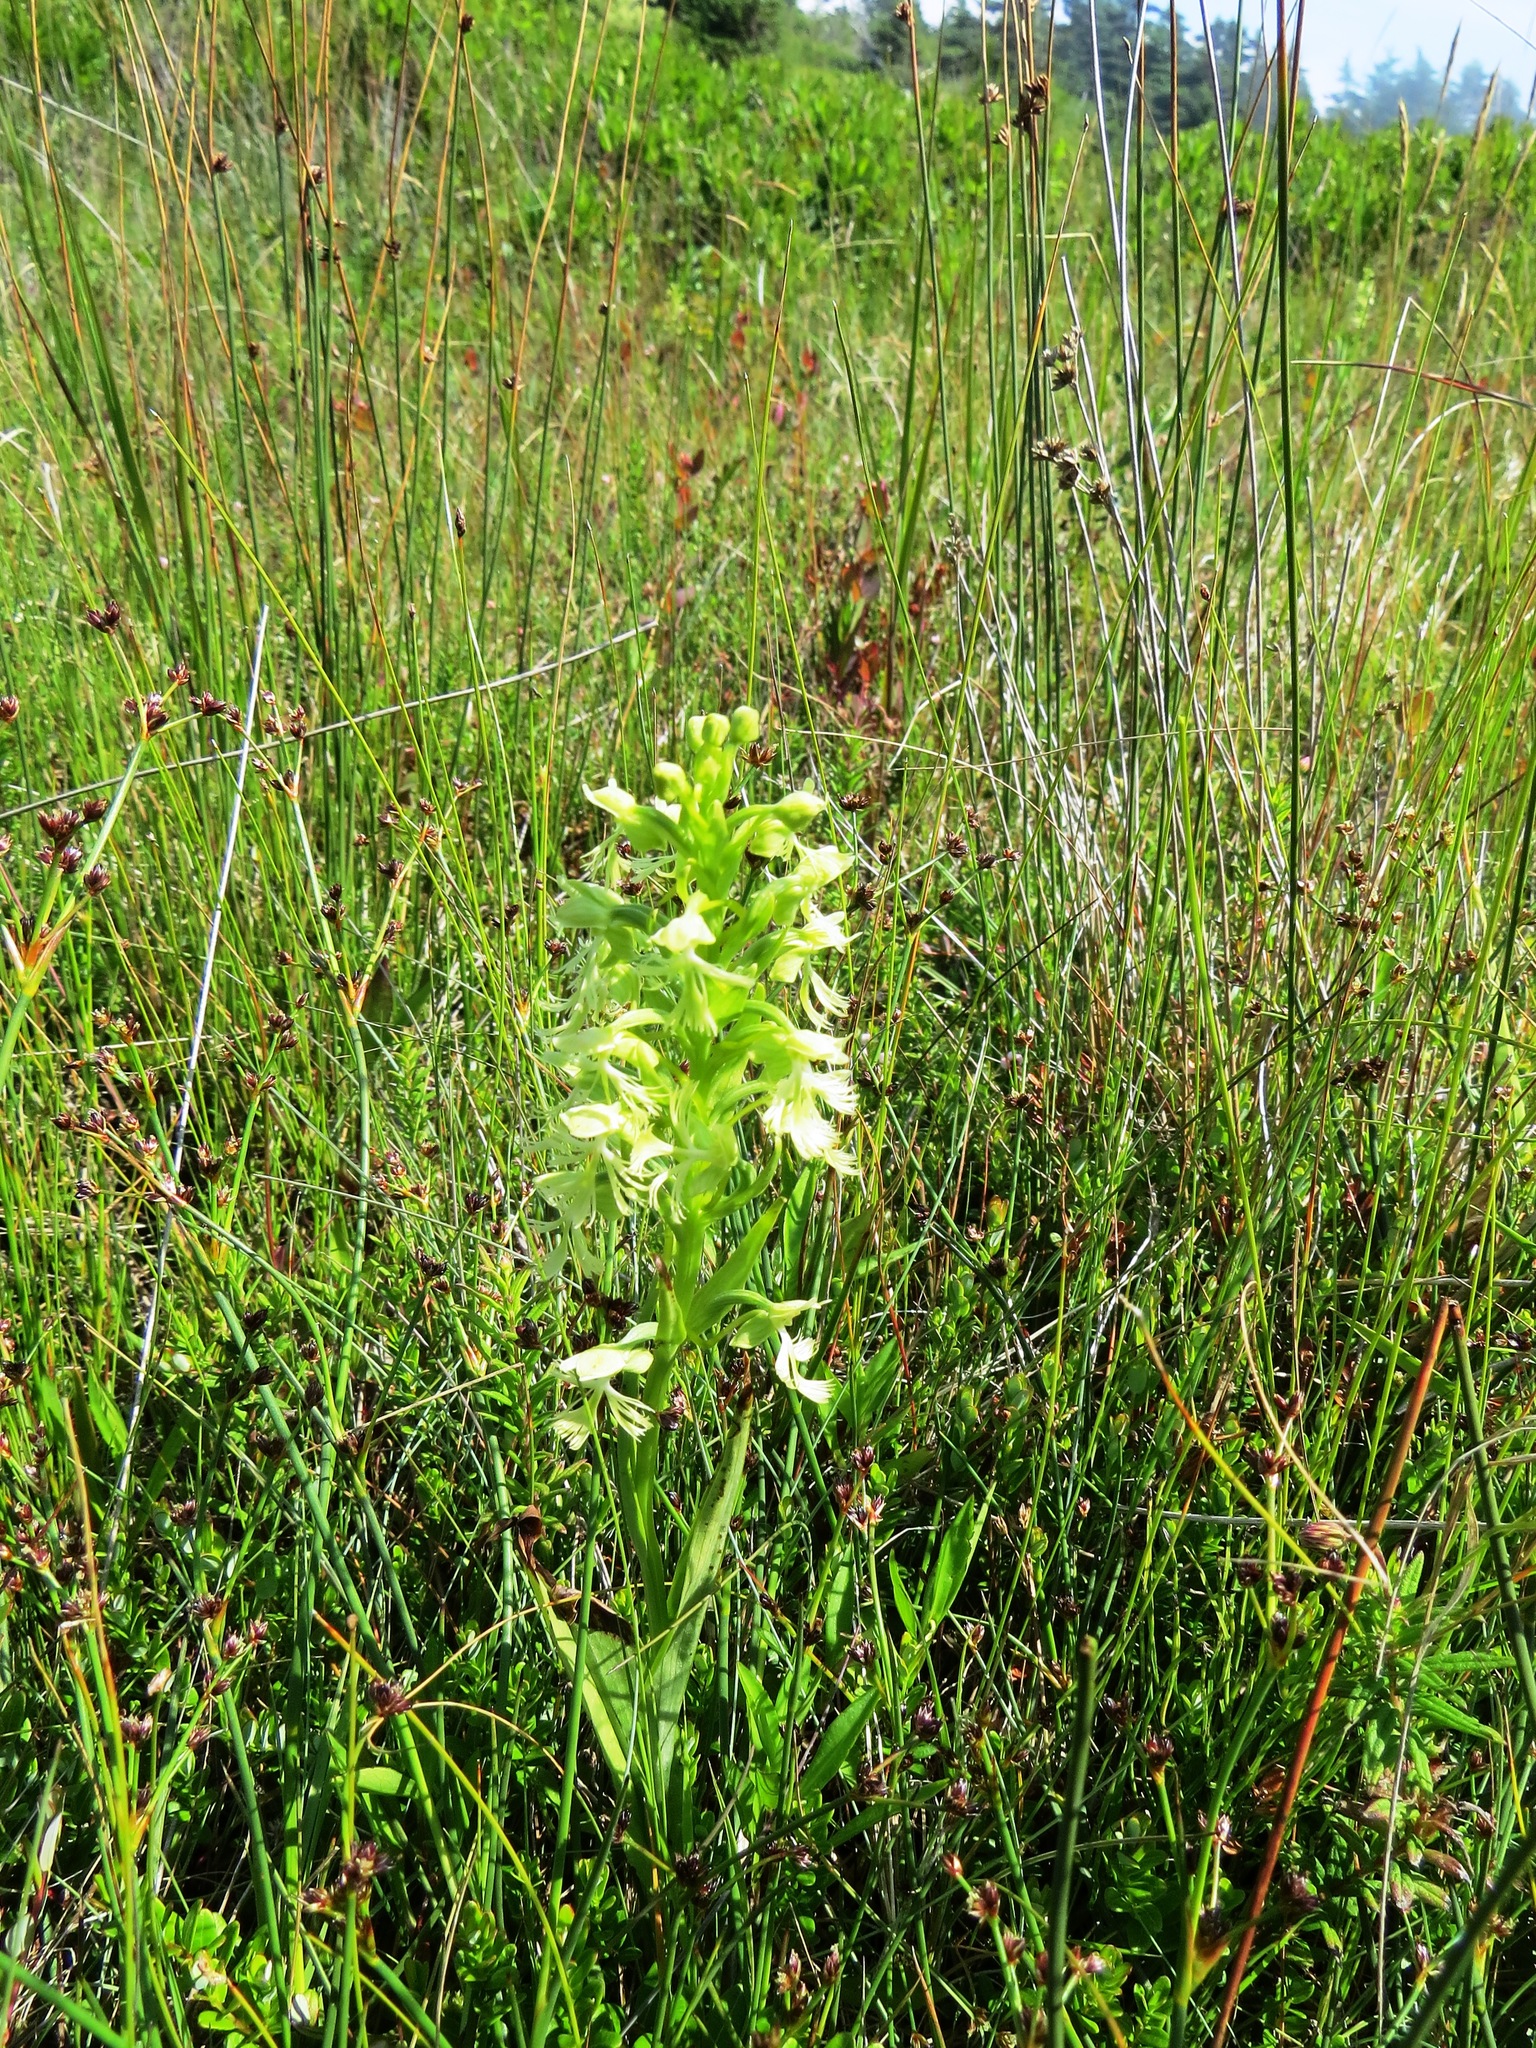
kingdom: Plantae
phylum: Tracheophyta
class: Liliopsida
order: Asparagales
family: Orchidaceae
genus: Platanthera
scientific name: Platanthera lacera
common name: Green fringed orchid
